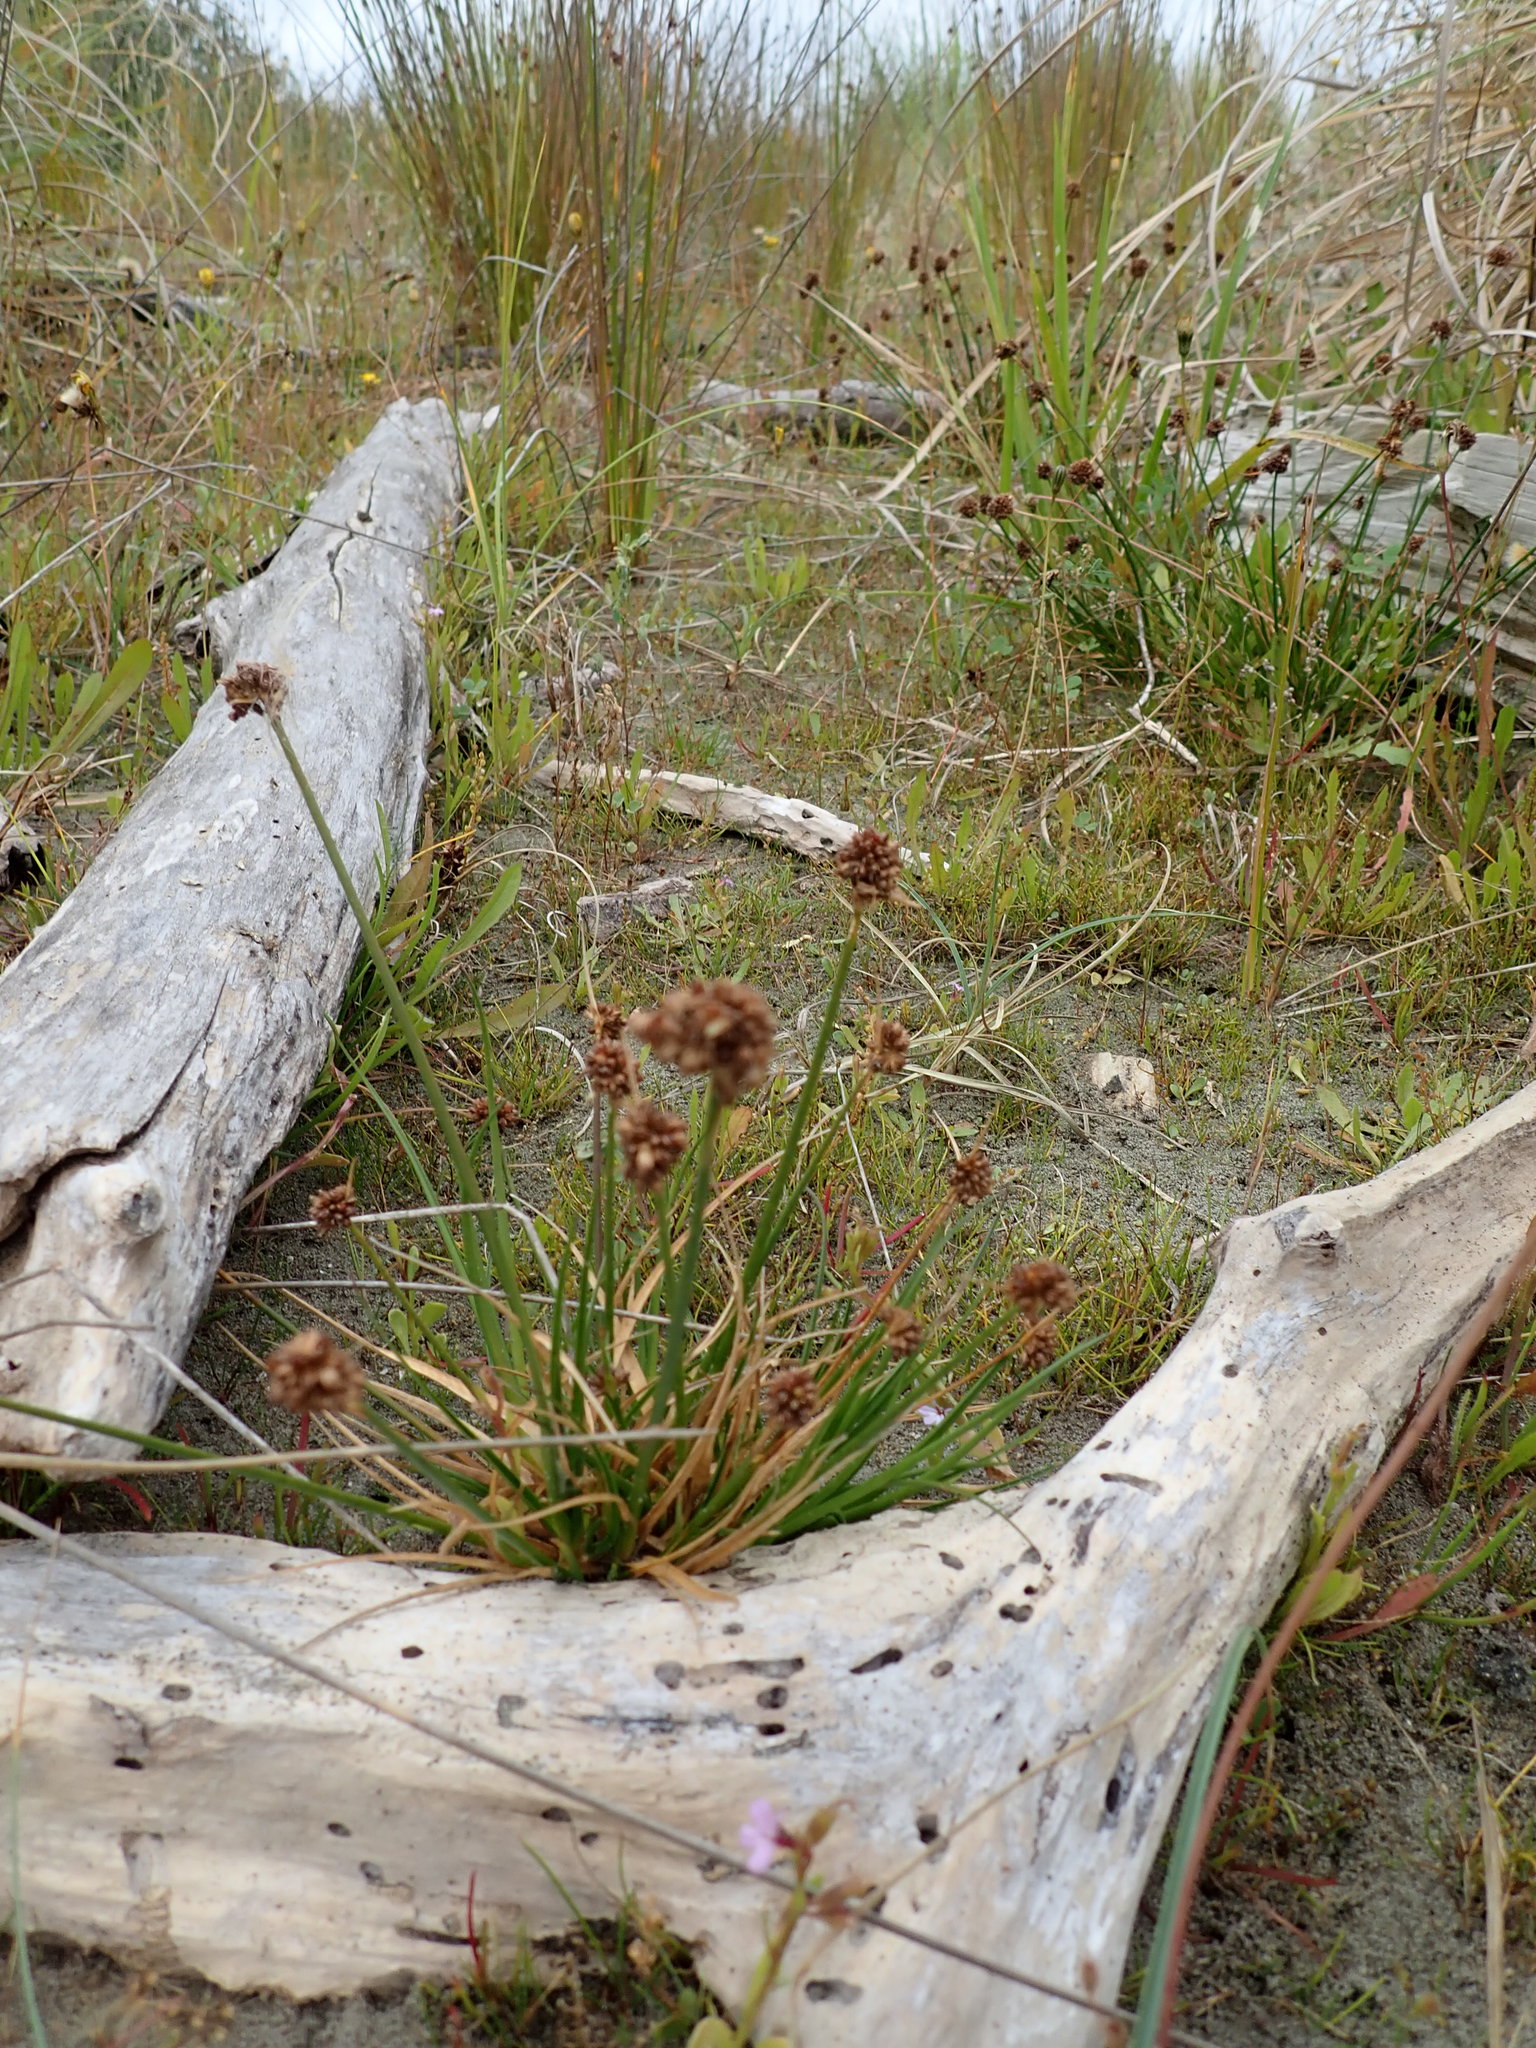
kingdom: Plantae
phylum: Tracheophyta
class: Liliopsida
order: Poales
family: Juncaceae
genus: Juncus
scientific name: Juncus caespiticius
